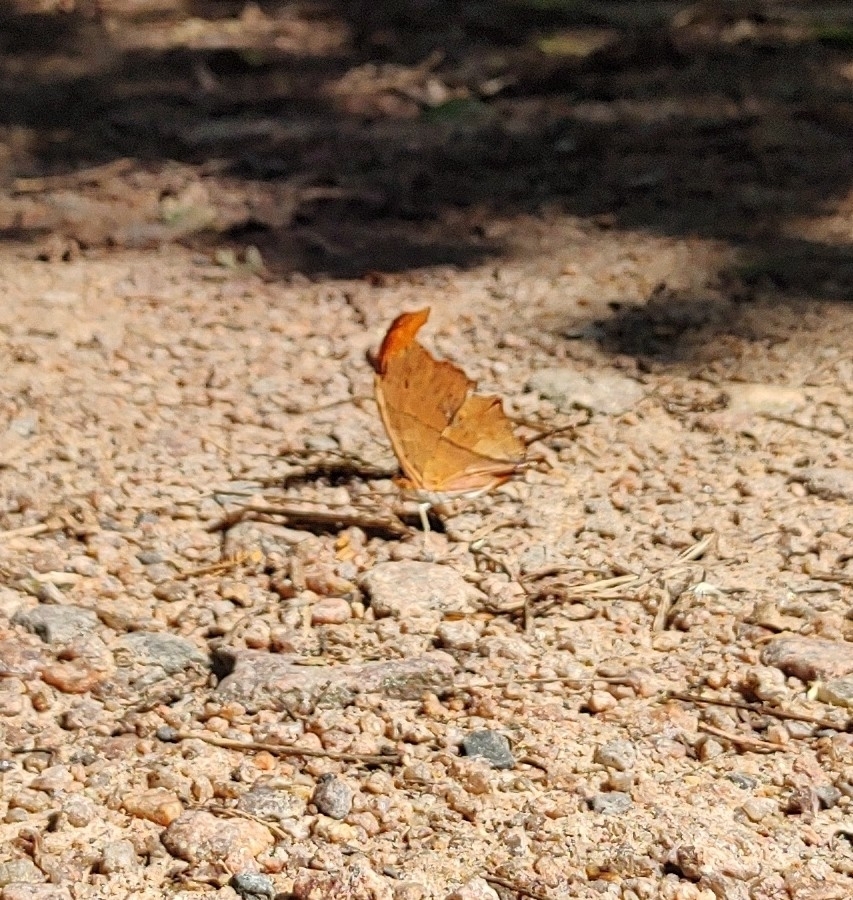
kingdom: Animalia
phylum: Arthropoda
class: Insecta
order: Lepidoptera
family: Nymphalidae
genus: Marpesia
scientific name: Marpesia petreus
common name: Red dagger wing
